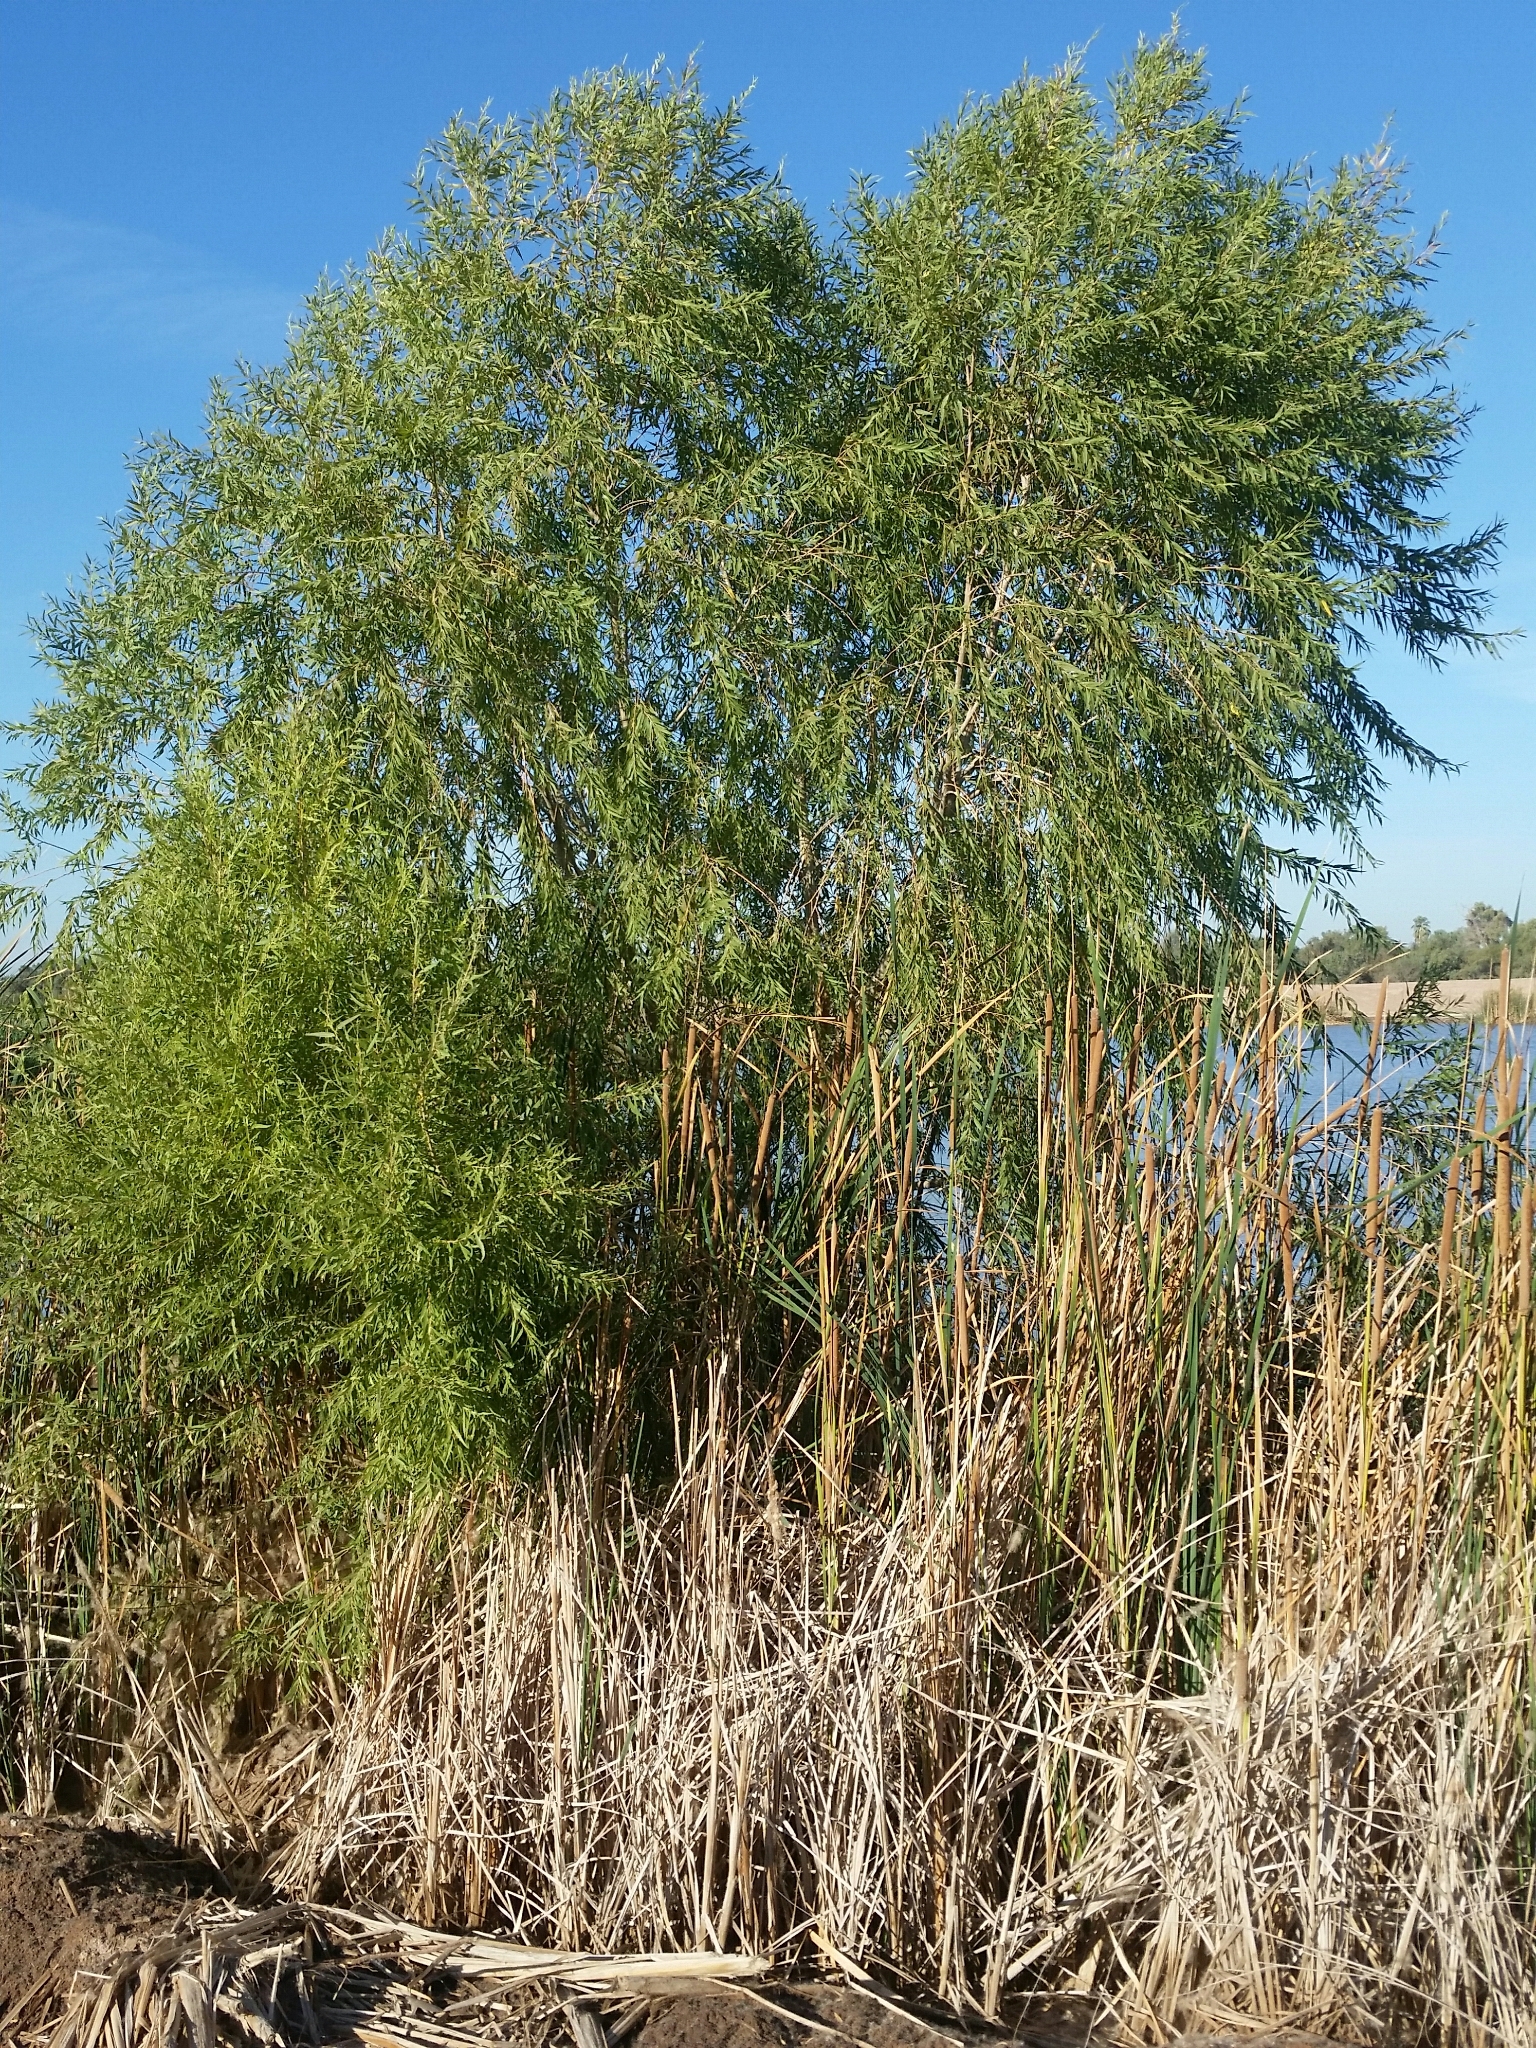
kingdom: Plantae
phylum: Tracheophyta
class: Magnoliopsida
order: Malpighiales
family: Salicaceae
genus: Salix
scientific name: Salix gooddingii
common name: Goodding's willow
